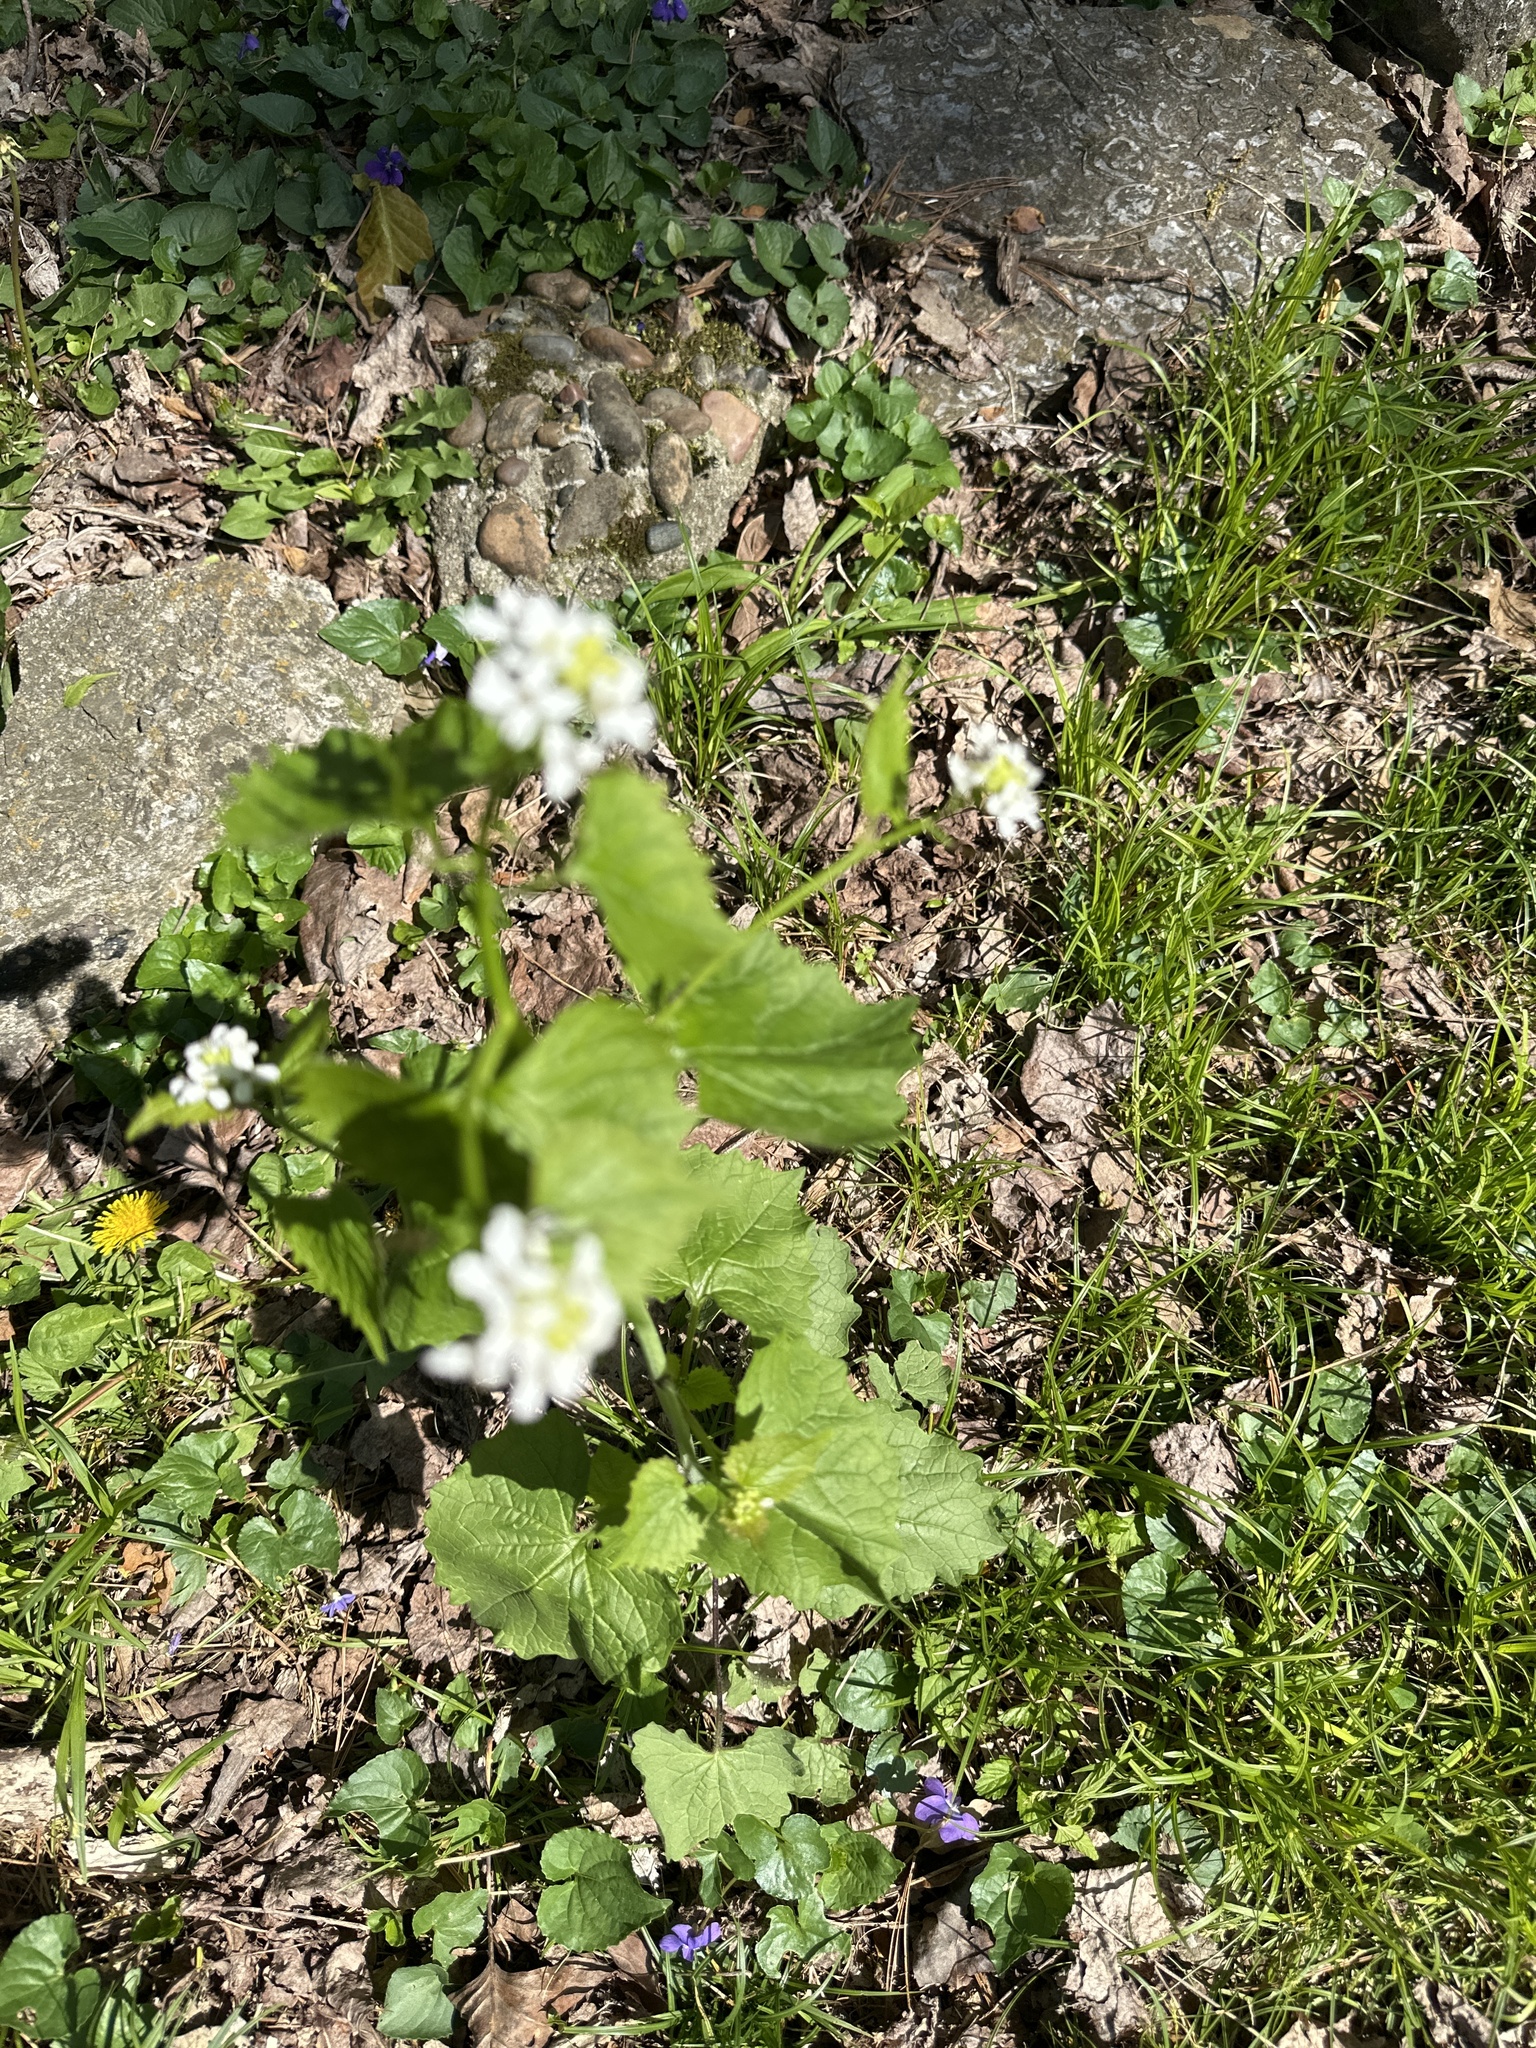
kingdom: Plantae
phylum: Tracheophyta
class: Magnoliopsida
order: Brassicales
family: Brassicaceae
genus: Alliaria
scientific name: Alliaria petiolata
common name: Garlic mustard
